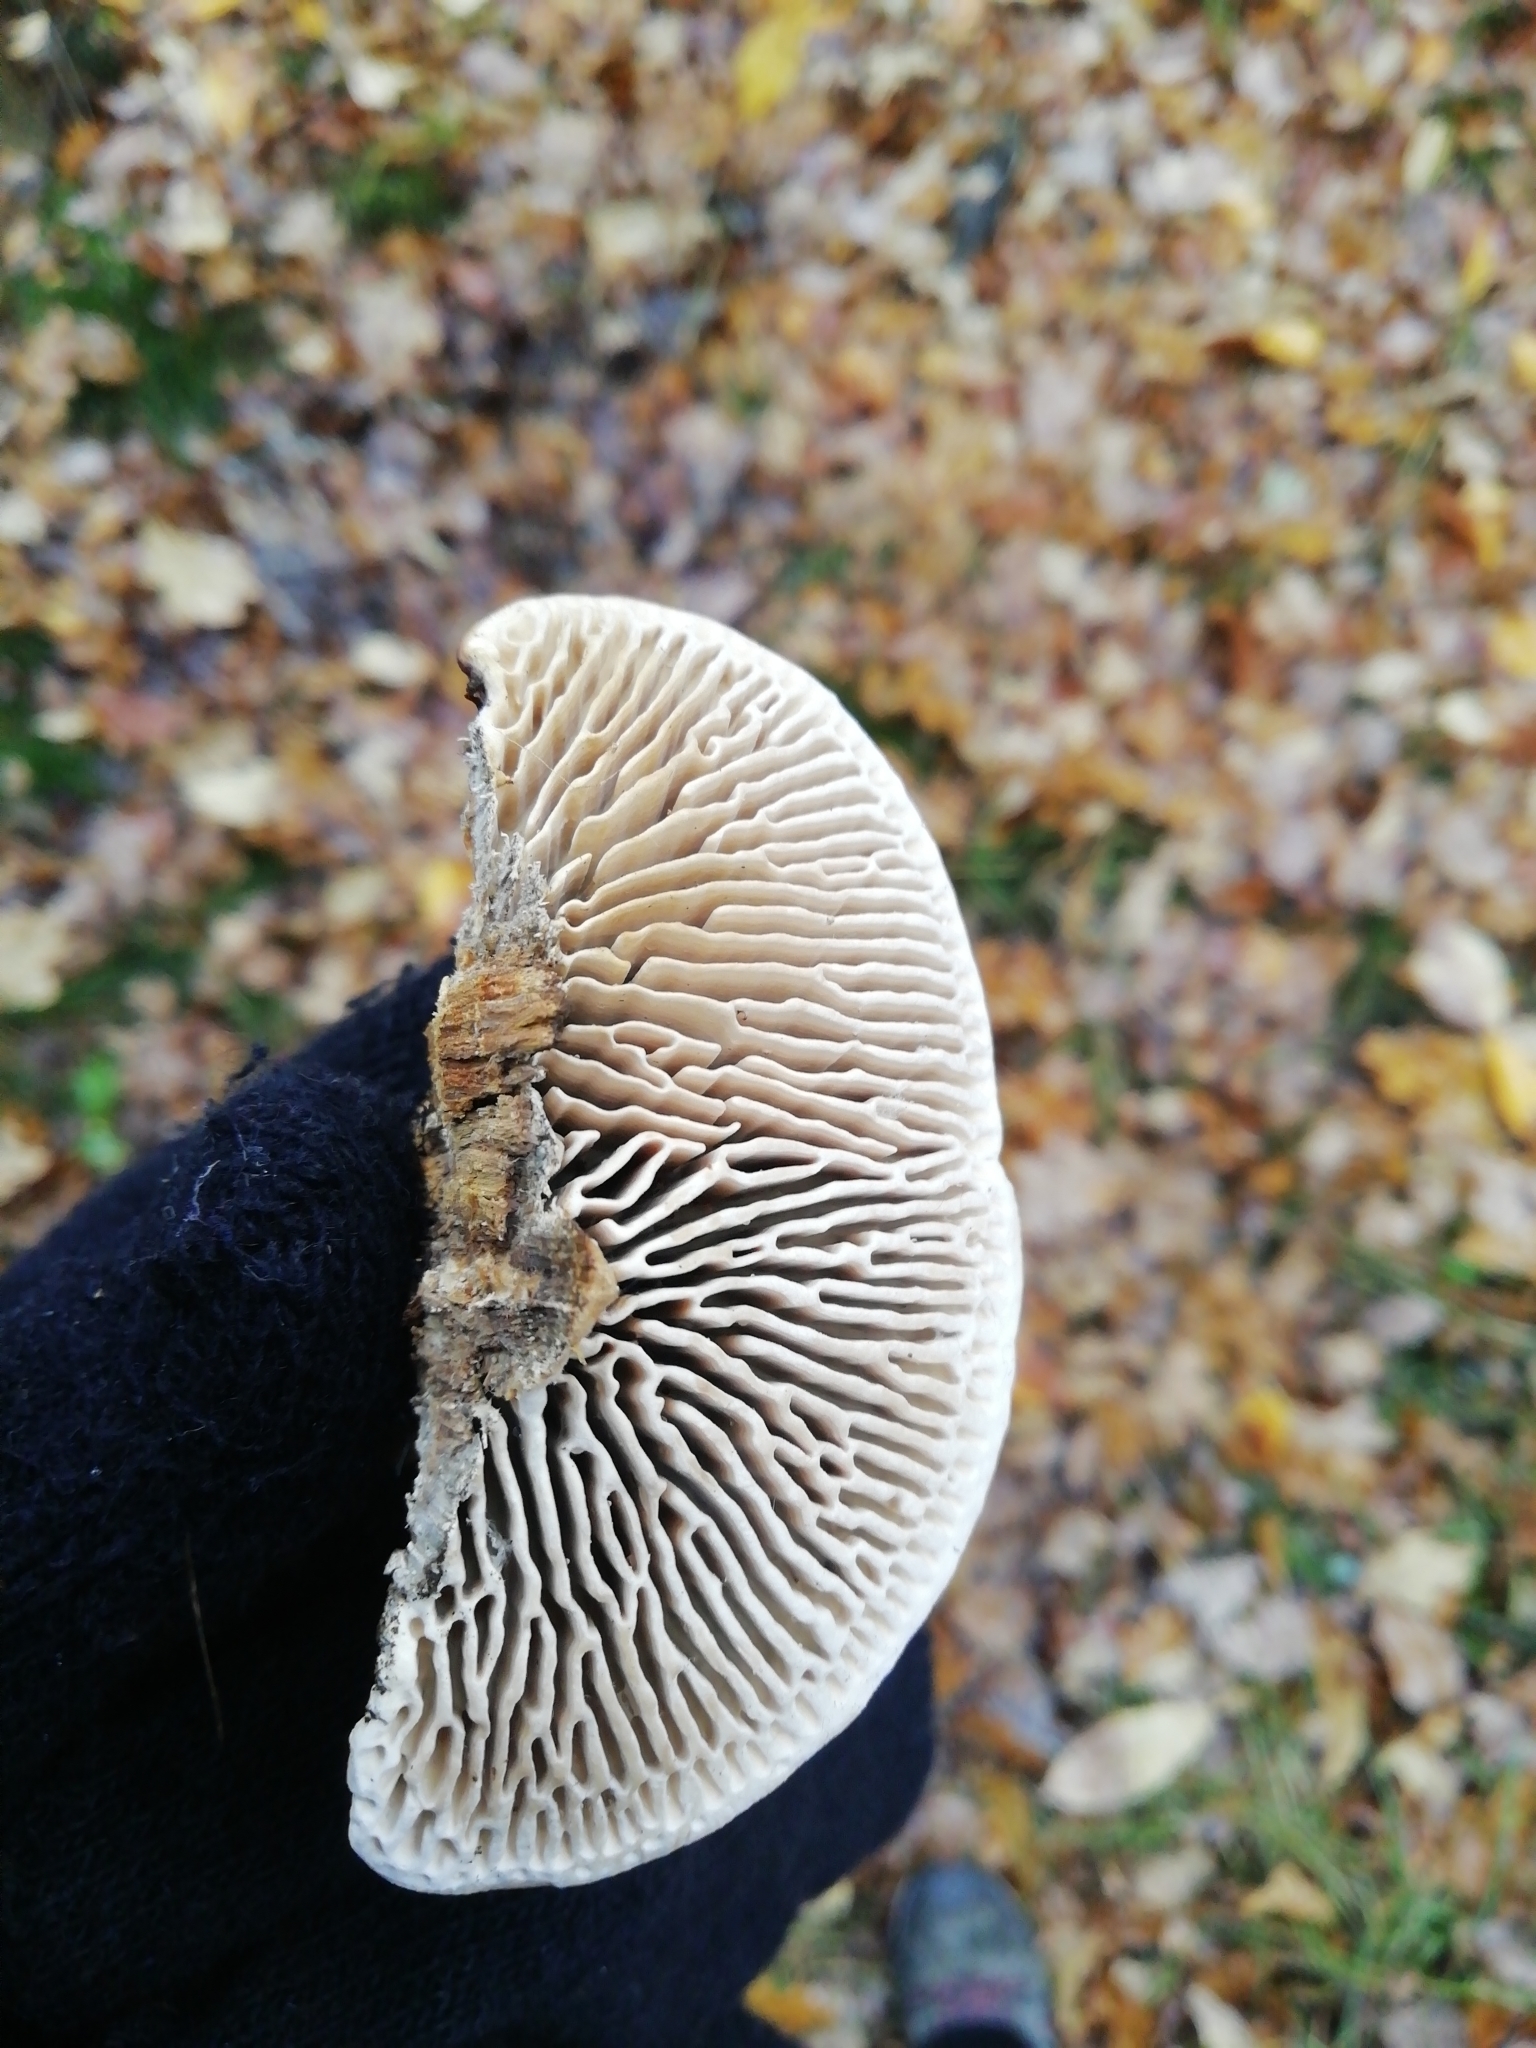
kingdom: Fungi
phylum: Basidiomycota
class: Agaricomycetes
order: Polyporales
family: Fomitopsidaceae
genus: Fomitopsis
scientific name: Fomitopsis
